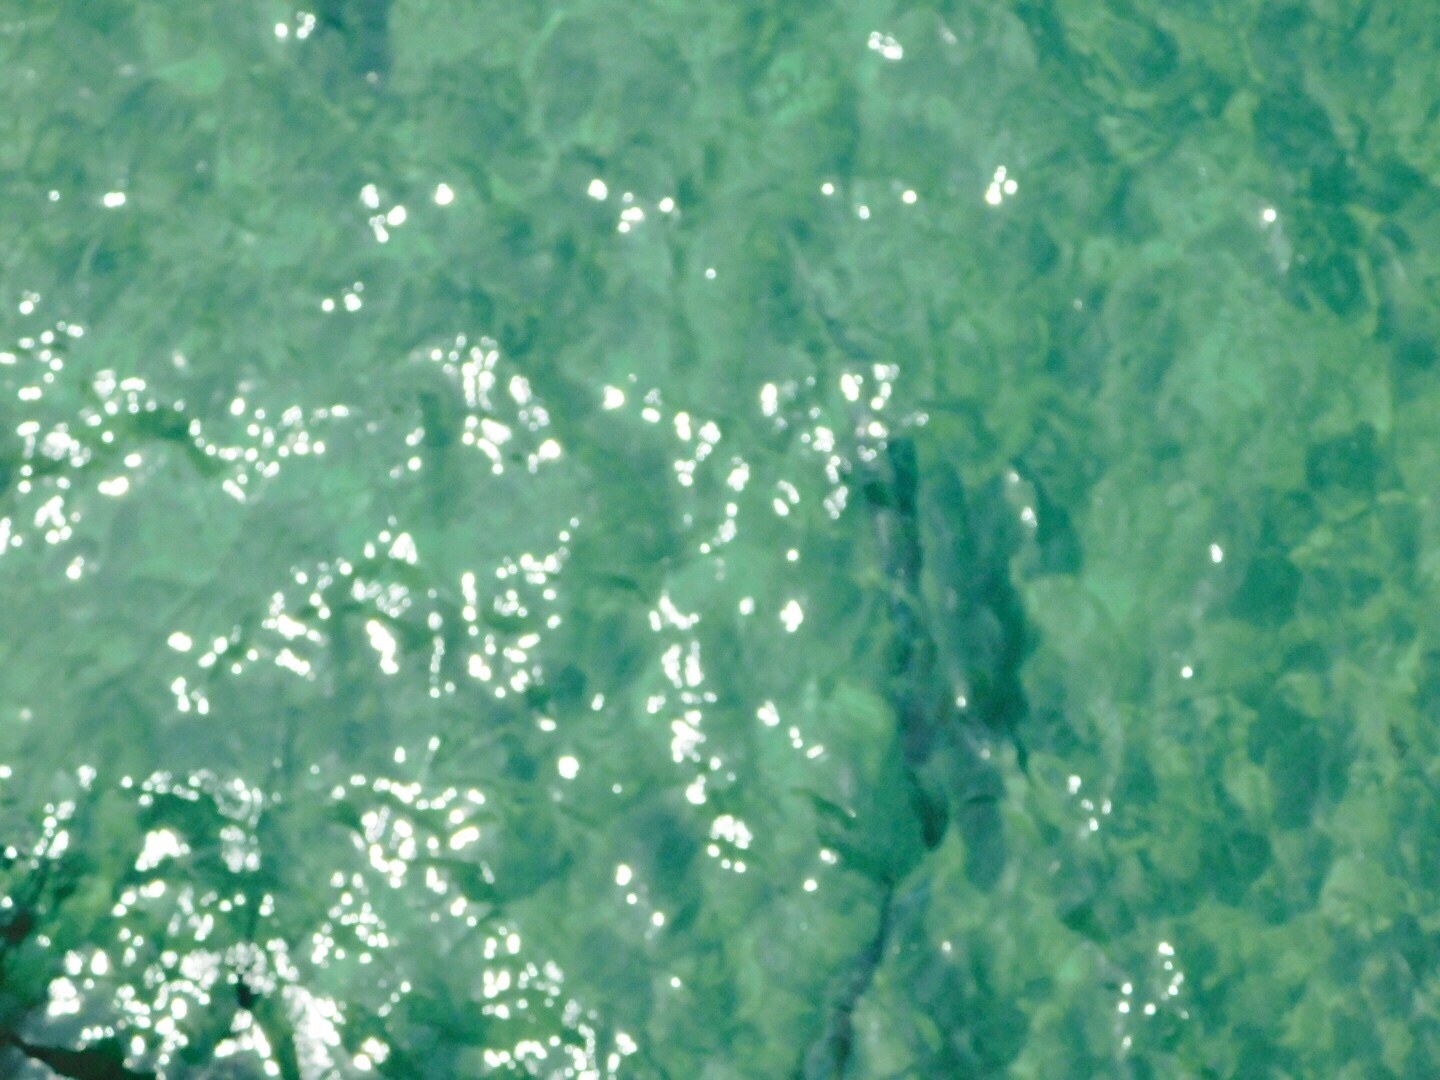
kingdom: Animalia
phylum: Chordata
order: Elopiformes
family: Megalopidae
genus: Megalops
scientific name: Megalops atlanticus
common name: Tarpon
